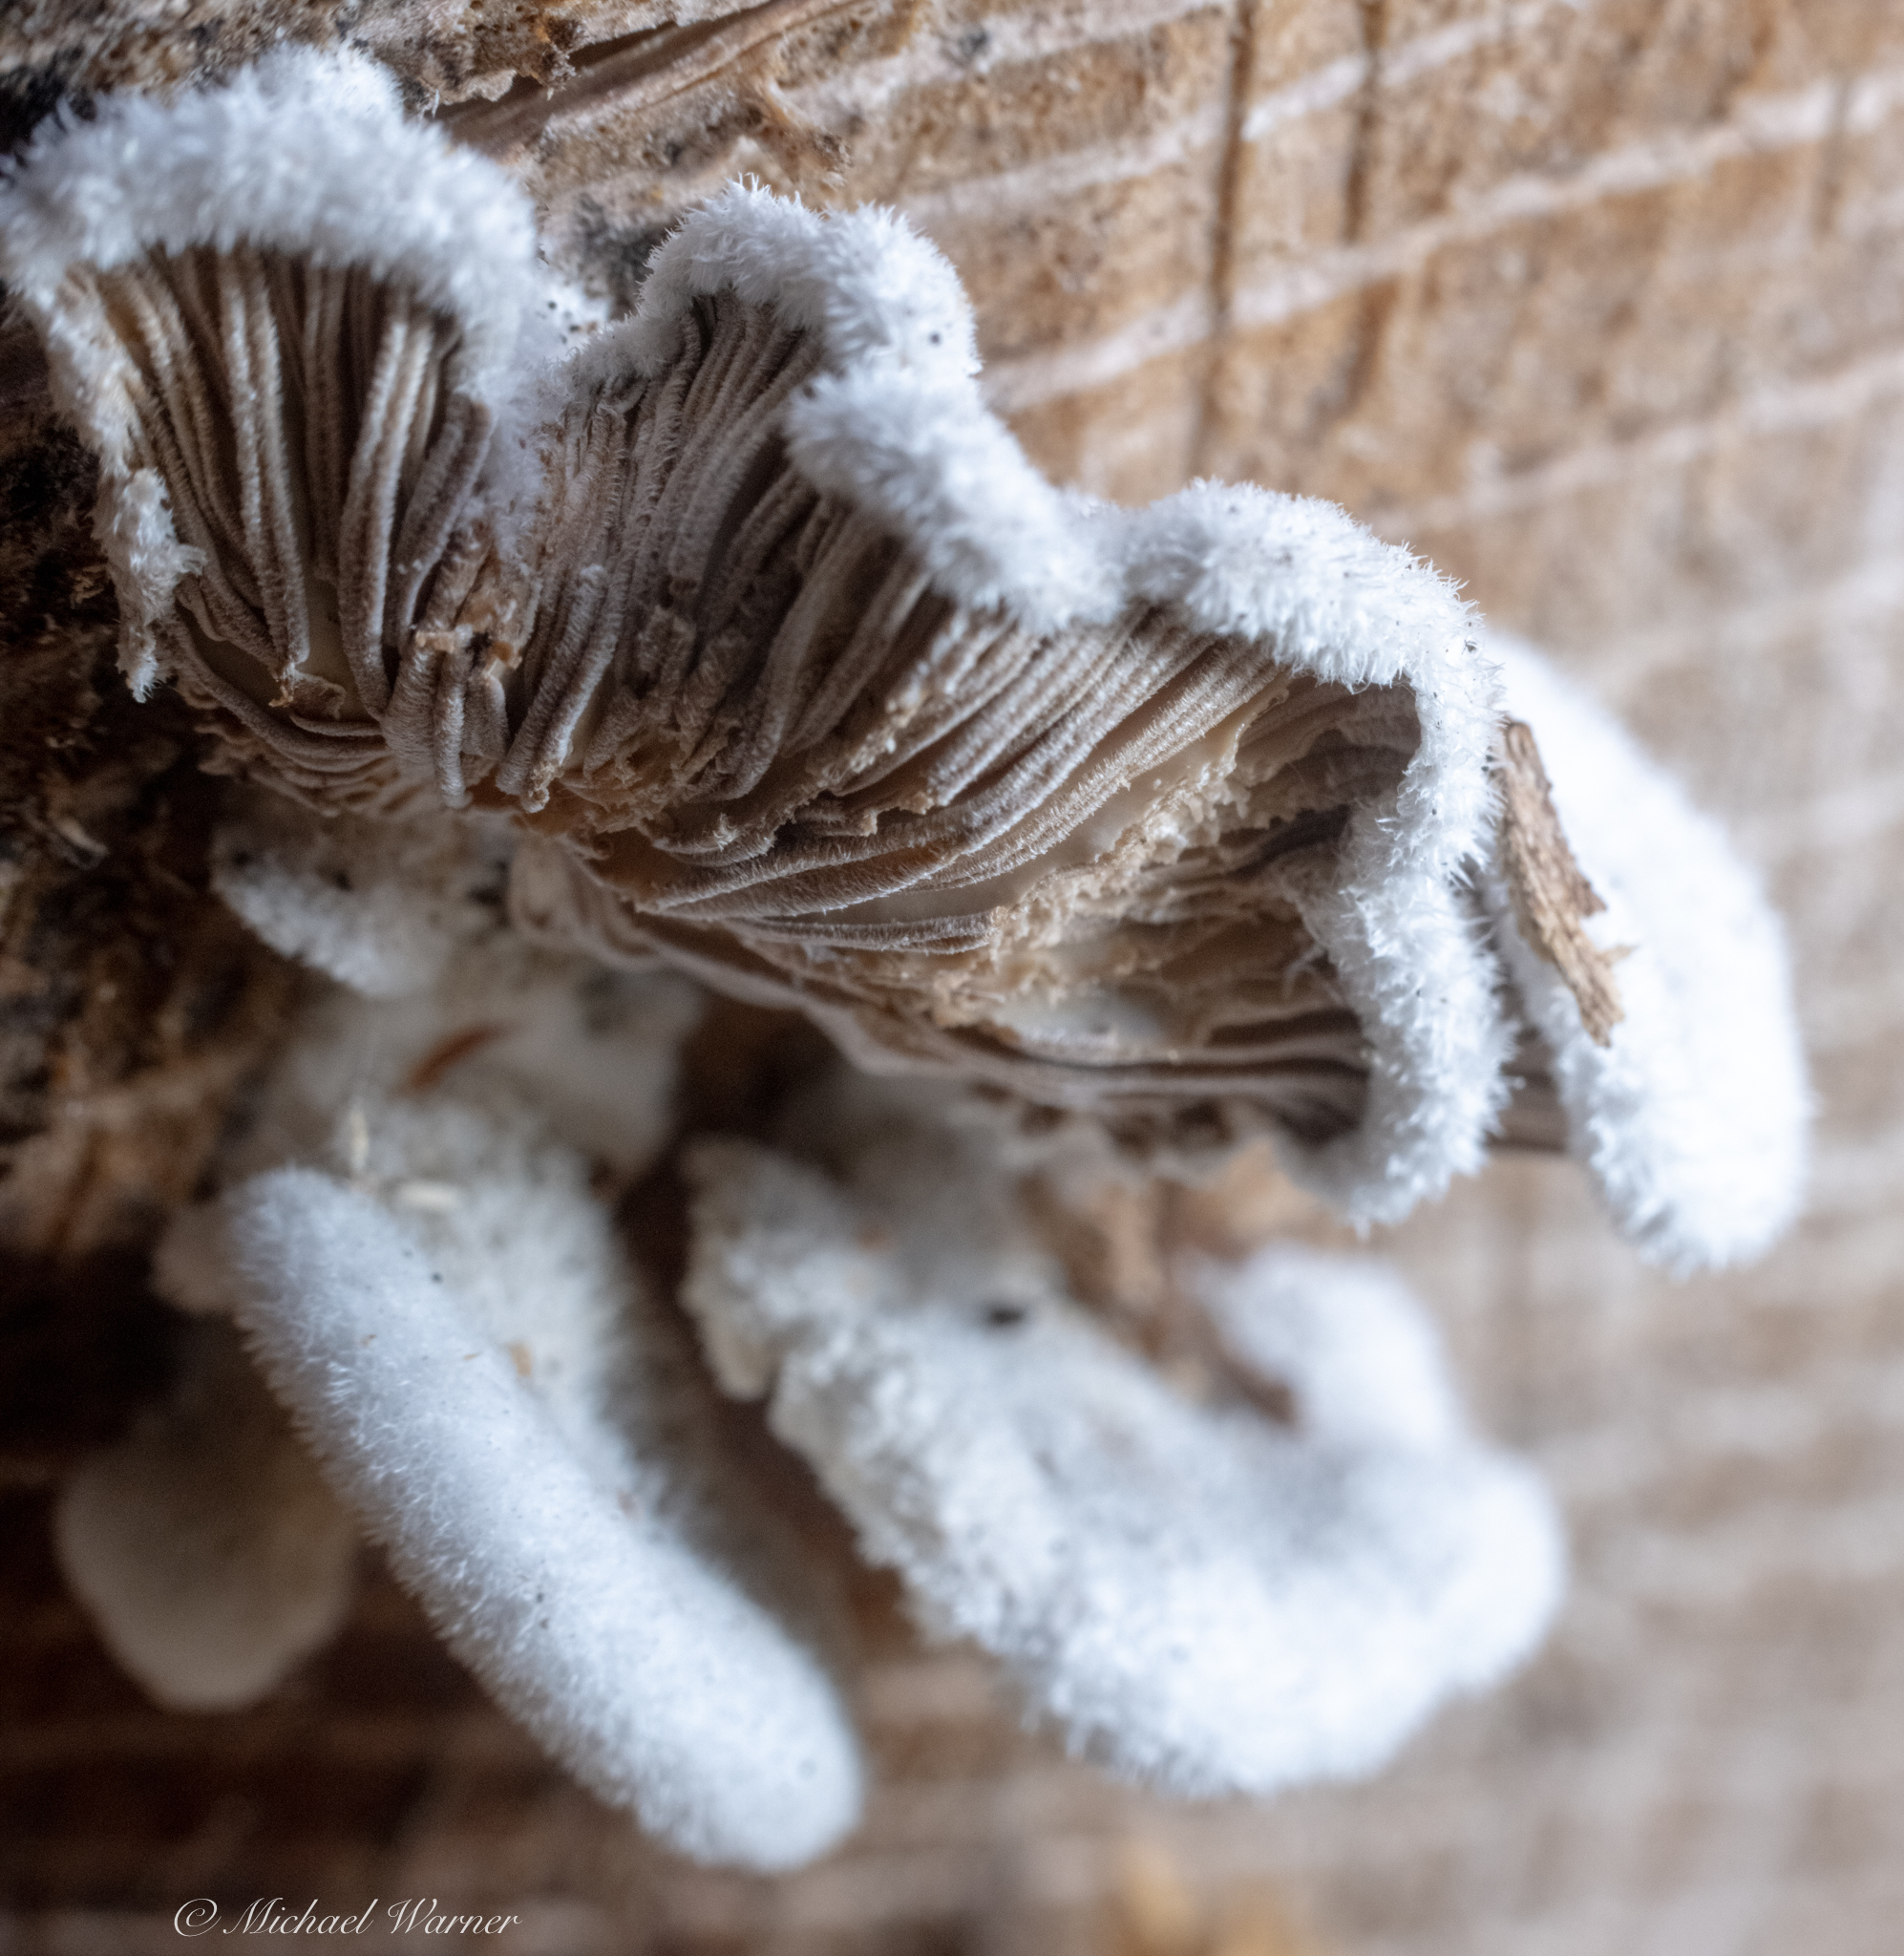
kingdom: Fungi
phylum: Basidiomycota
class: Agaricomycetes
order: Agaricales
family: Schizophyllaceae
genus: Schizophyllum
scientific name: Schizophyllum commune
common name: Common porecrust
